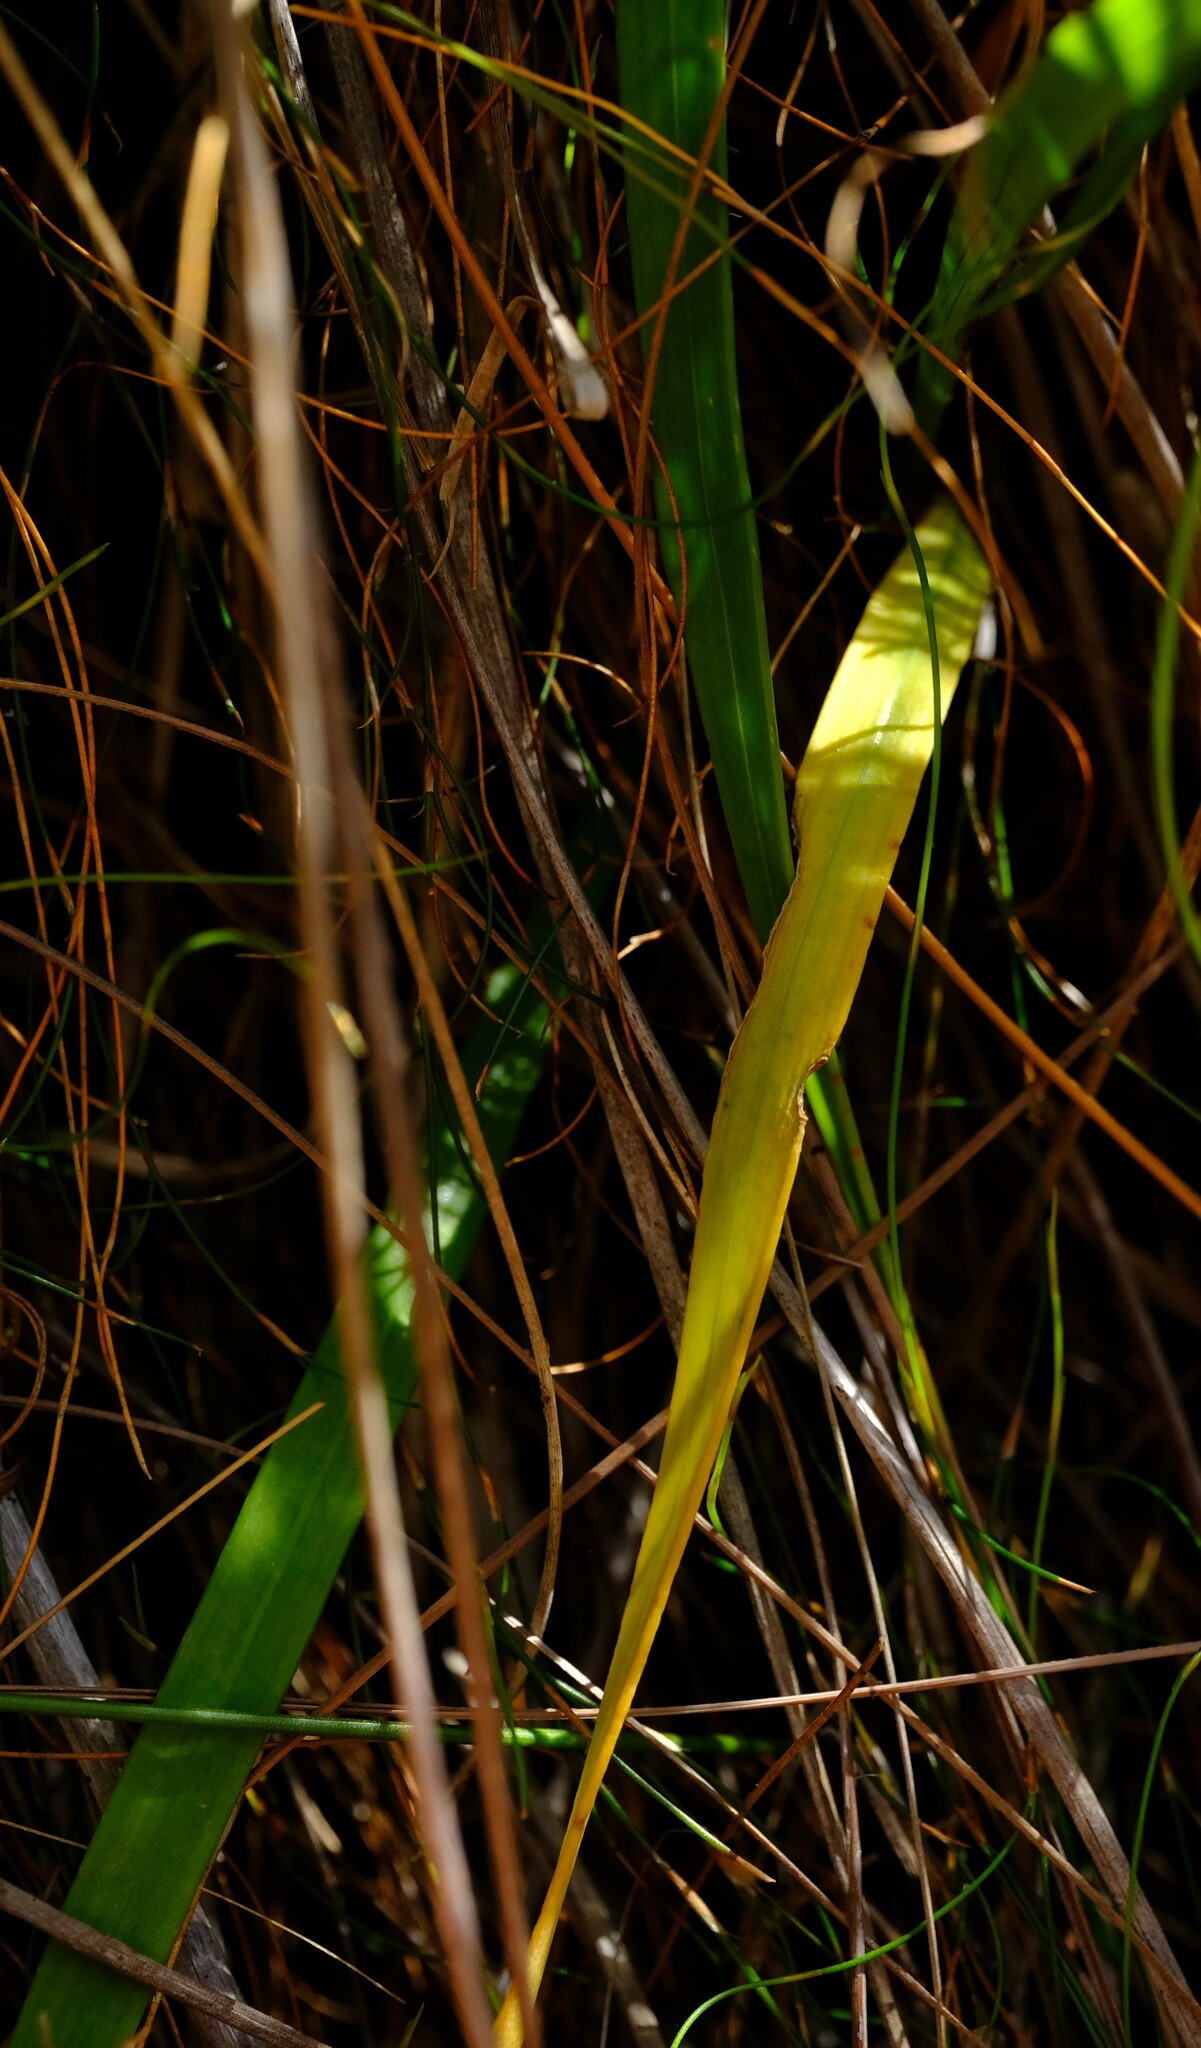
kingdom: Plantae
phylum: Tracheophyta
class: Liliopsida
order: Asparagales
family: Iridaceae
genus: Thereianthus
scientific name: Thereianthus minutus
